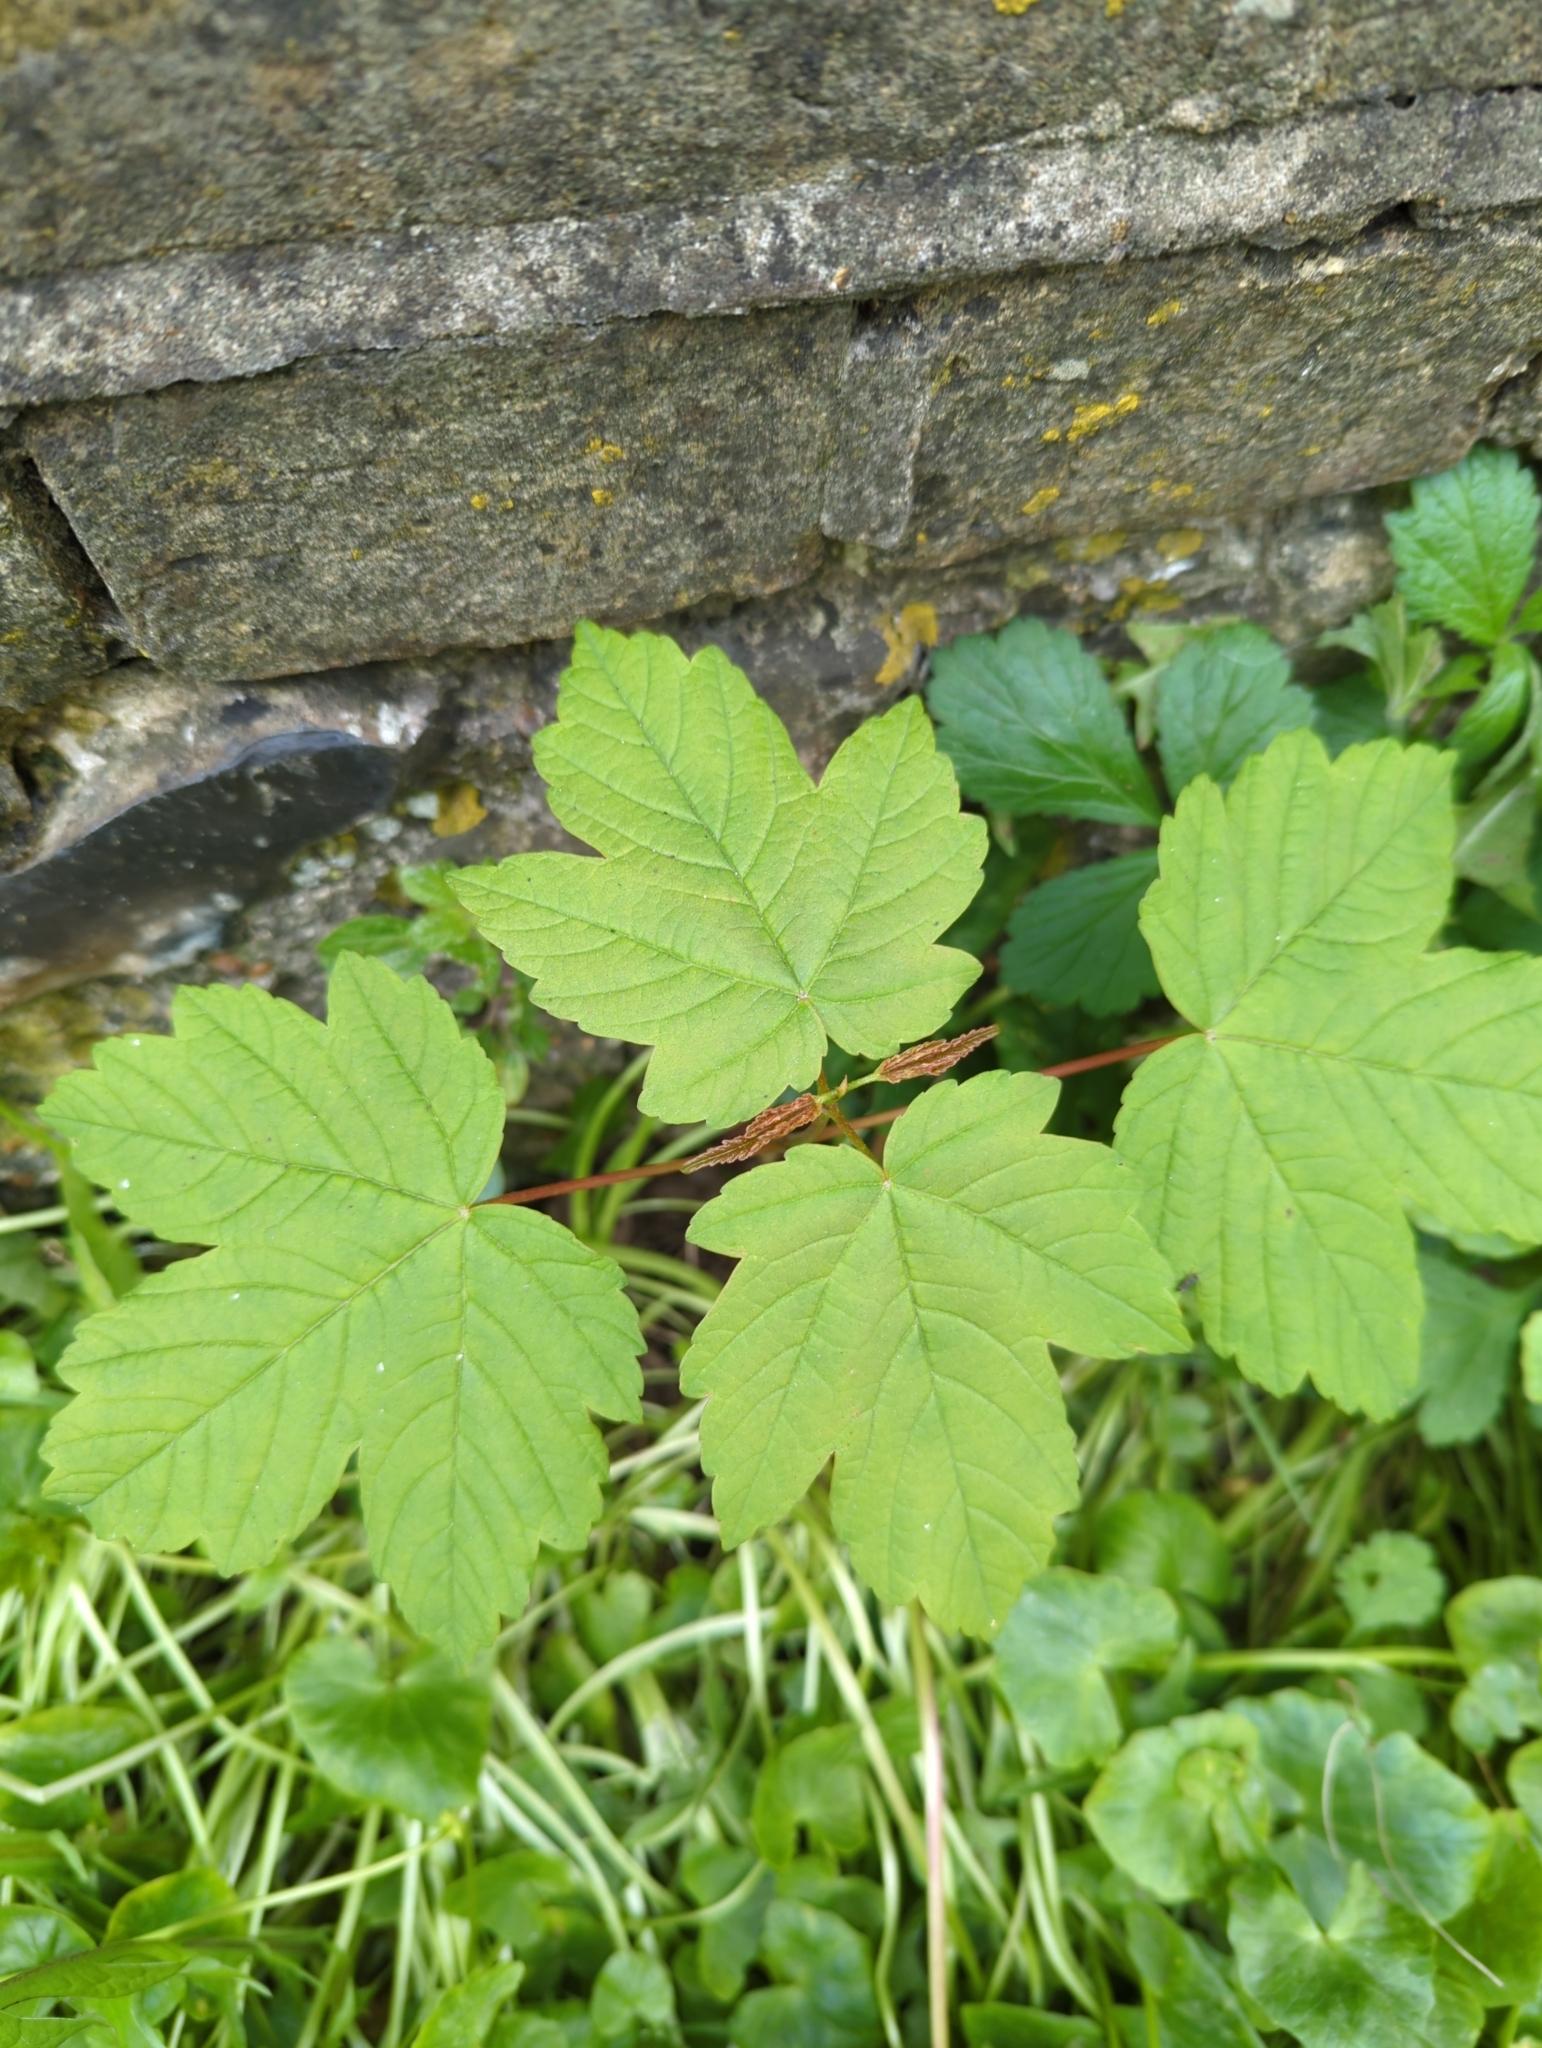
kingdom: Plantae
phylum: Tracheophyta
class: Magnoliopsida
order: Sapindales
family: Sapindaceae
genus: Acer
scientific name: Acer pseudoplatanus
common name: Sycamore
